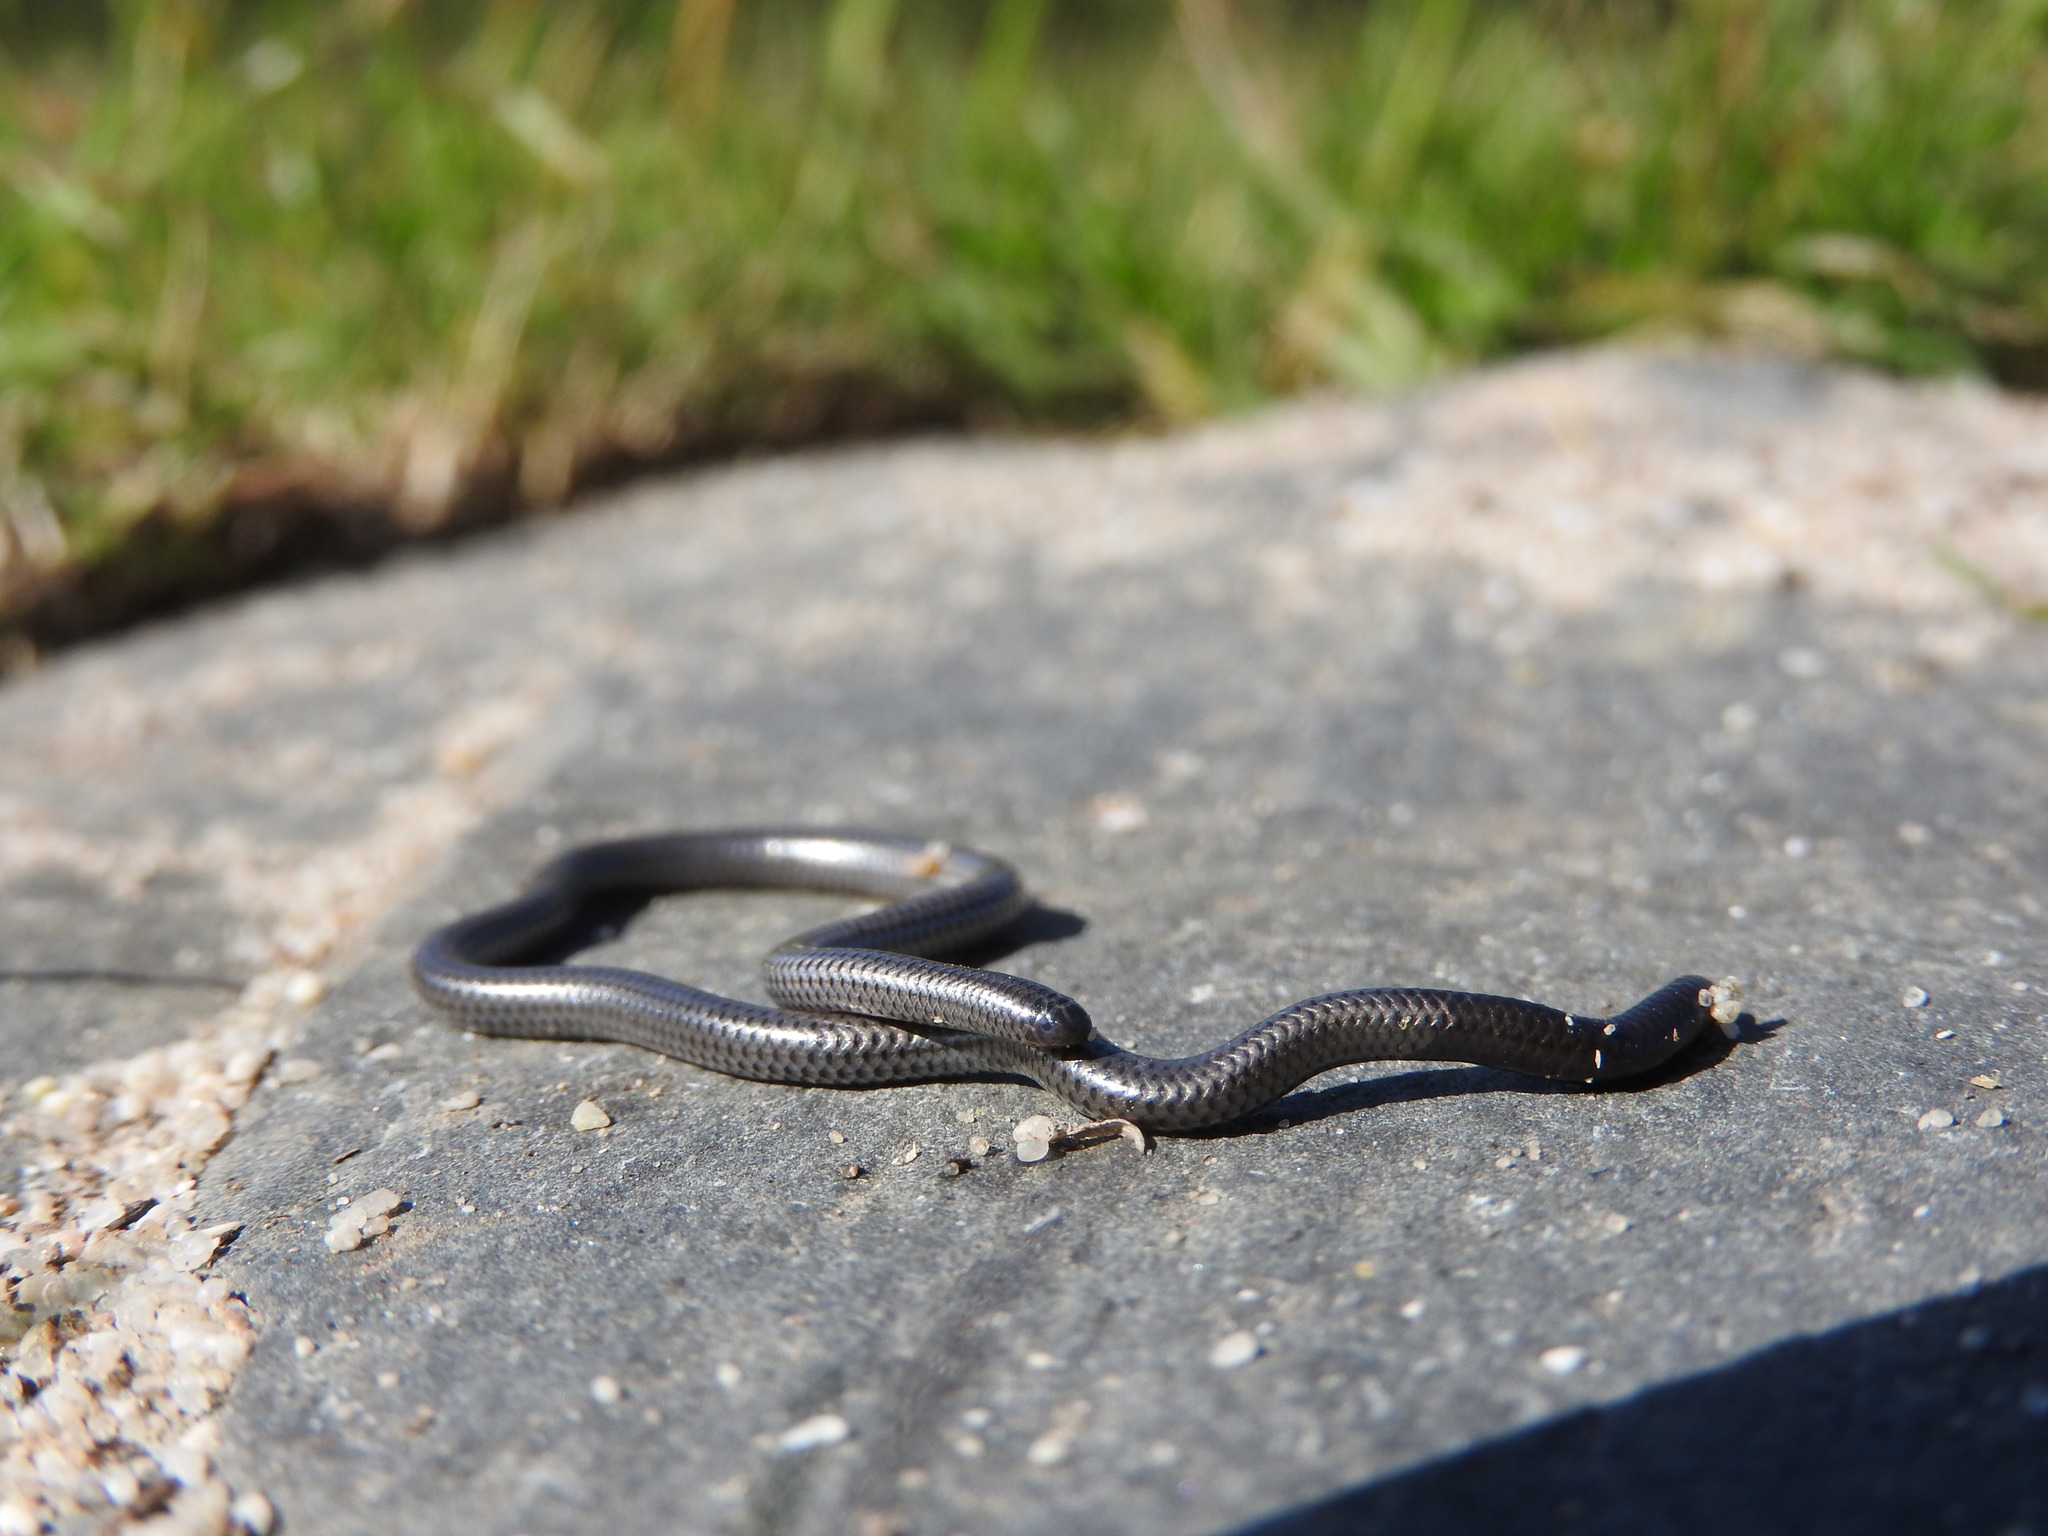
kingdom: Animalia
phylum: Chordata
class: Squamata
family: Leptotyphlopidae
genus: Leptotyphlops
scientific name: Leptotyphlops nigricans
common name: Black thread snake
